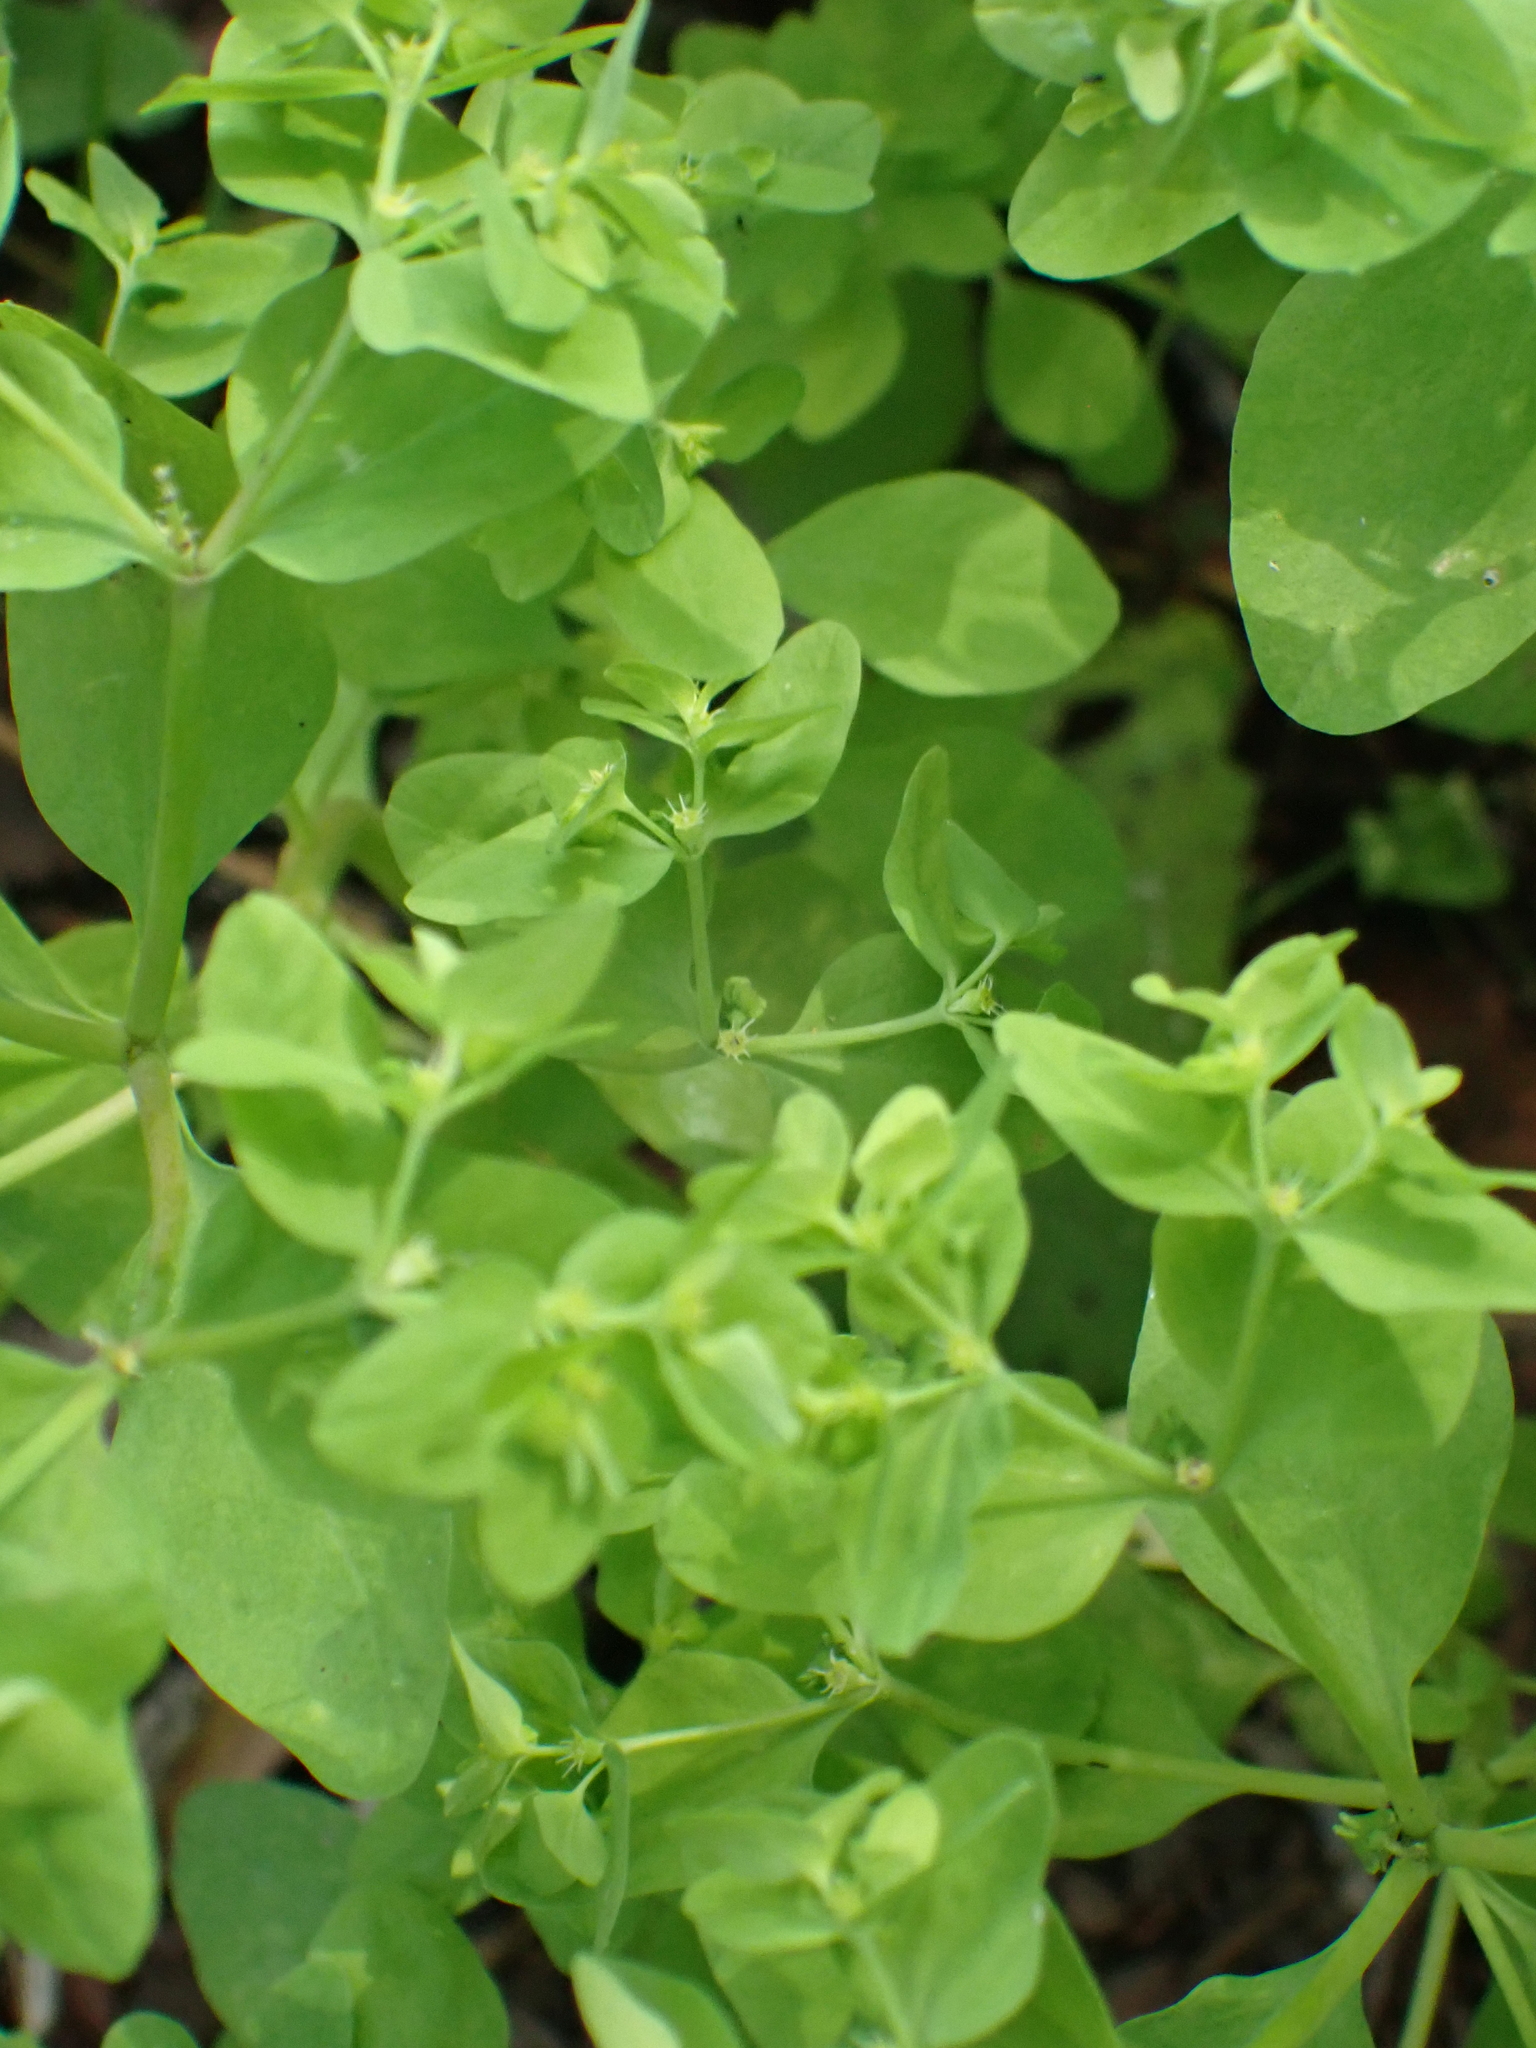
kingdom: Plantae
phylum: Tracheophyta
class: Magnoliopsida
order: Malpighiales
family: Euphorbiaceae
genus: Euphorbia
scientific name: Euphorbia peplus
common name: Petty spurge
